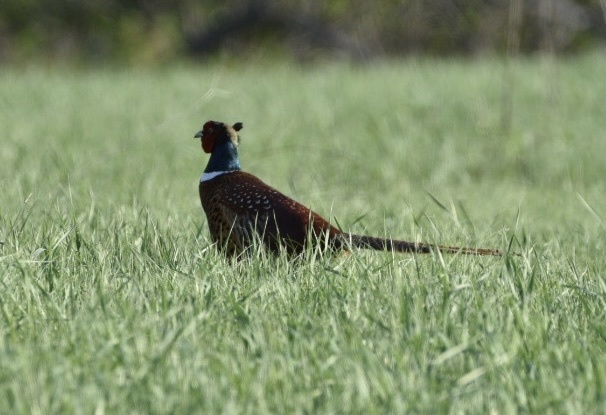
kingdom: Animalia
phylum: Chordata
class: Aves
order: Galliformes
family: Phasianidae
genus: Phasianus
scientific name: Phasianus colchicus
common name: Common pheasant
